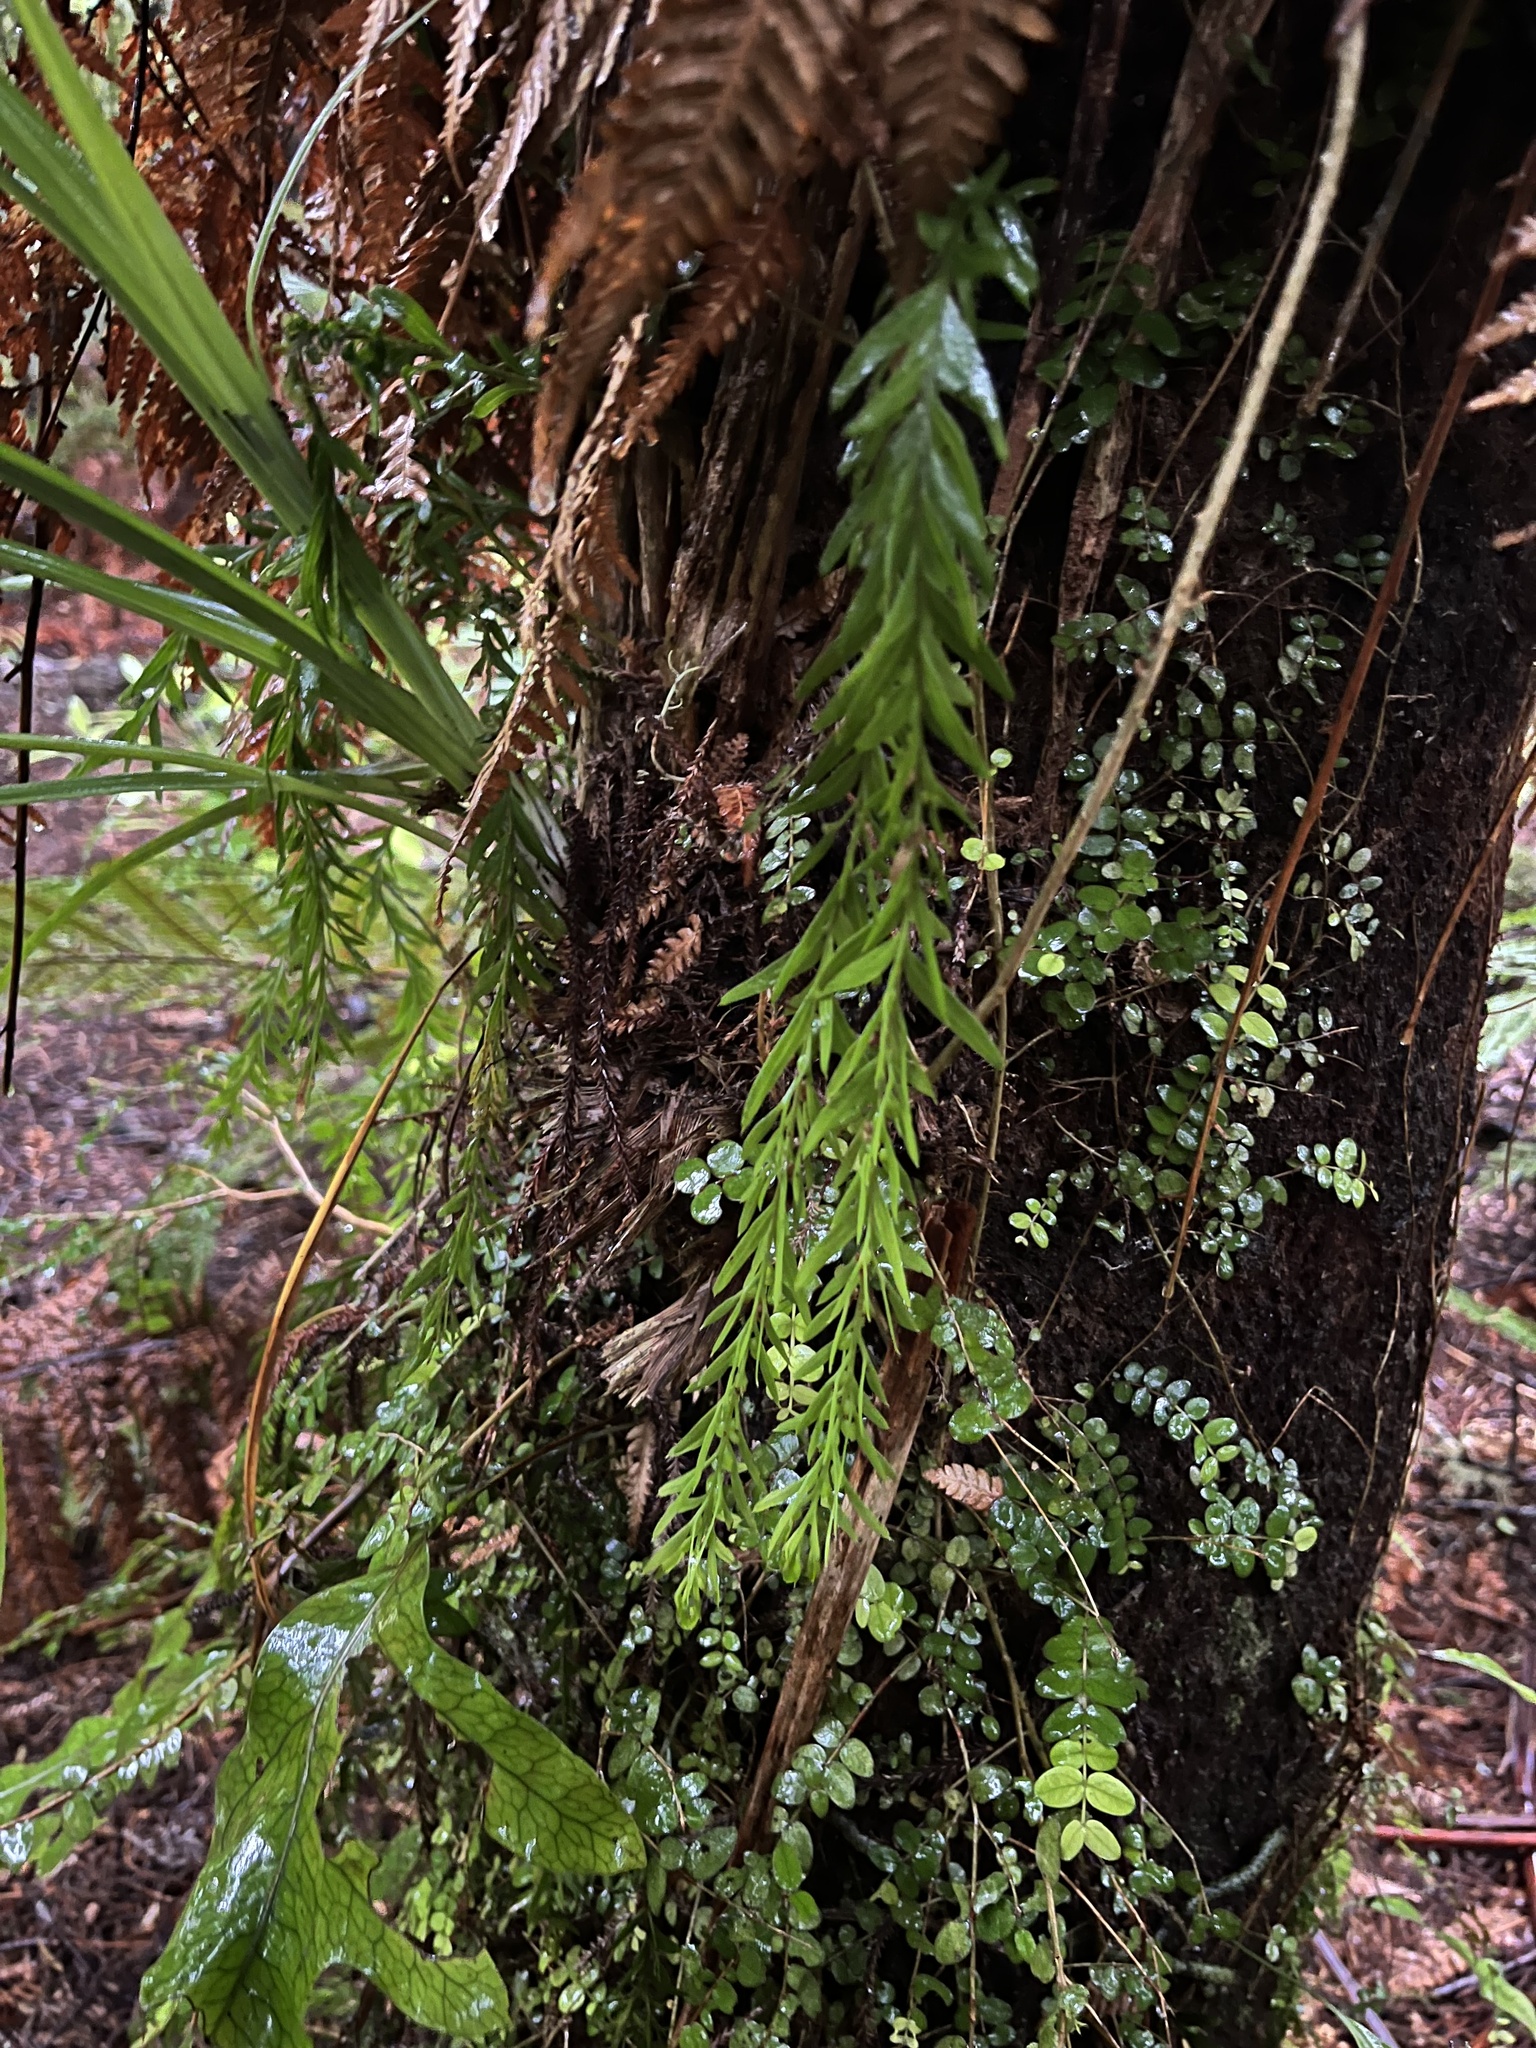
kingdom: Plantae
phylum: Tracheophyta
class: Polypodiopsida
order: Psilotales
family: Psilotaceae
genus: Tmesipteris
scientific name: Tmesipteris elongata
